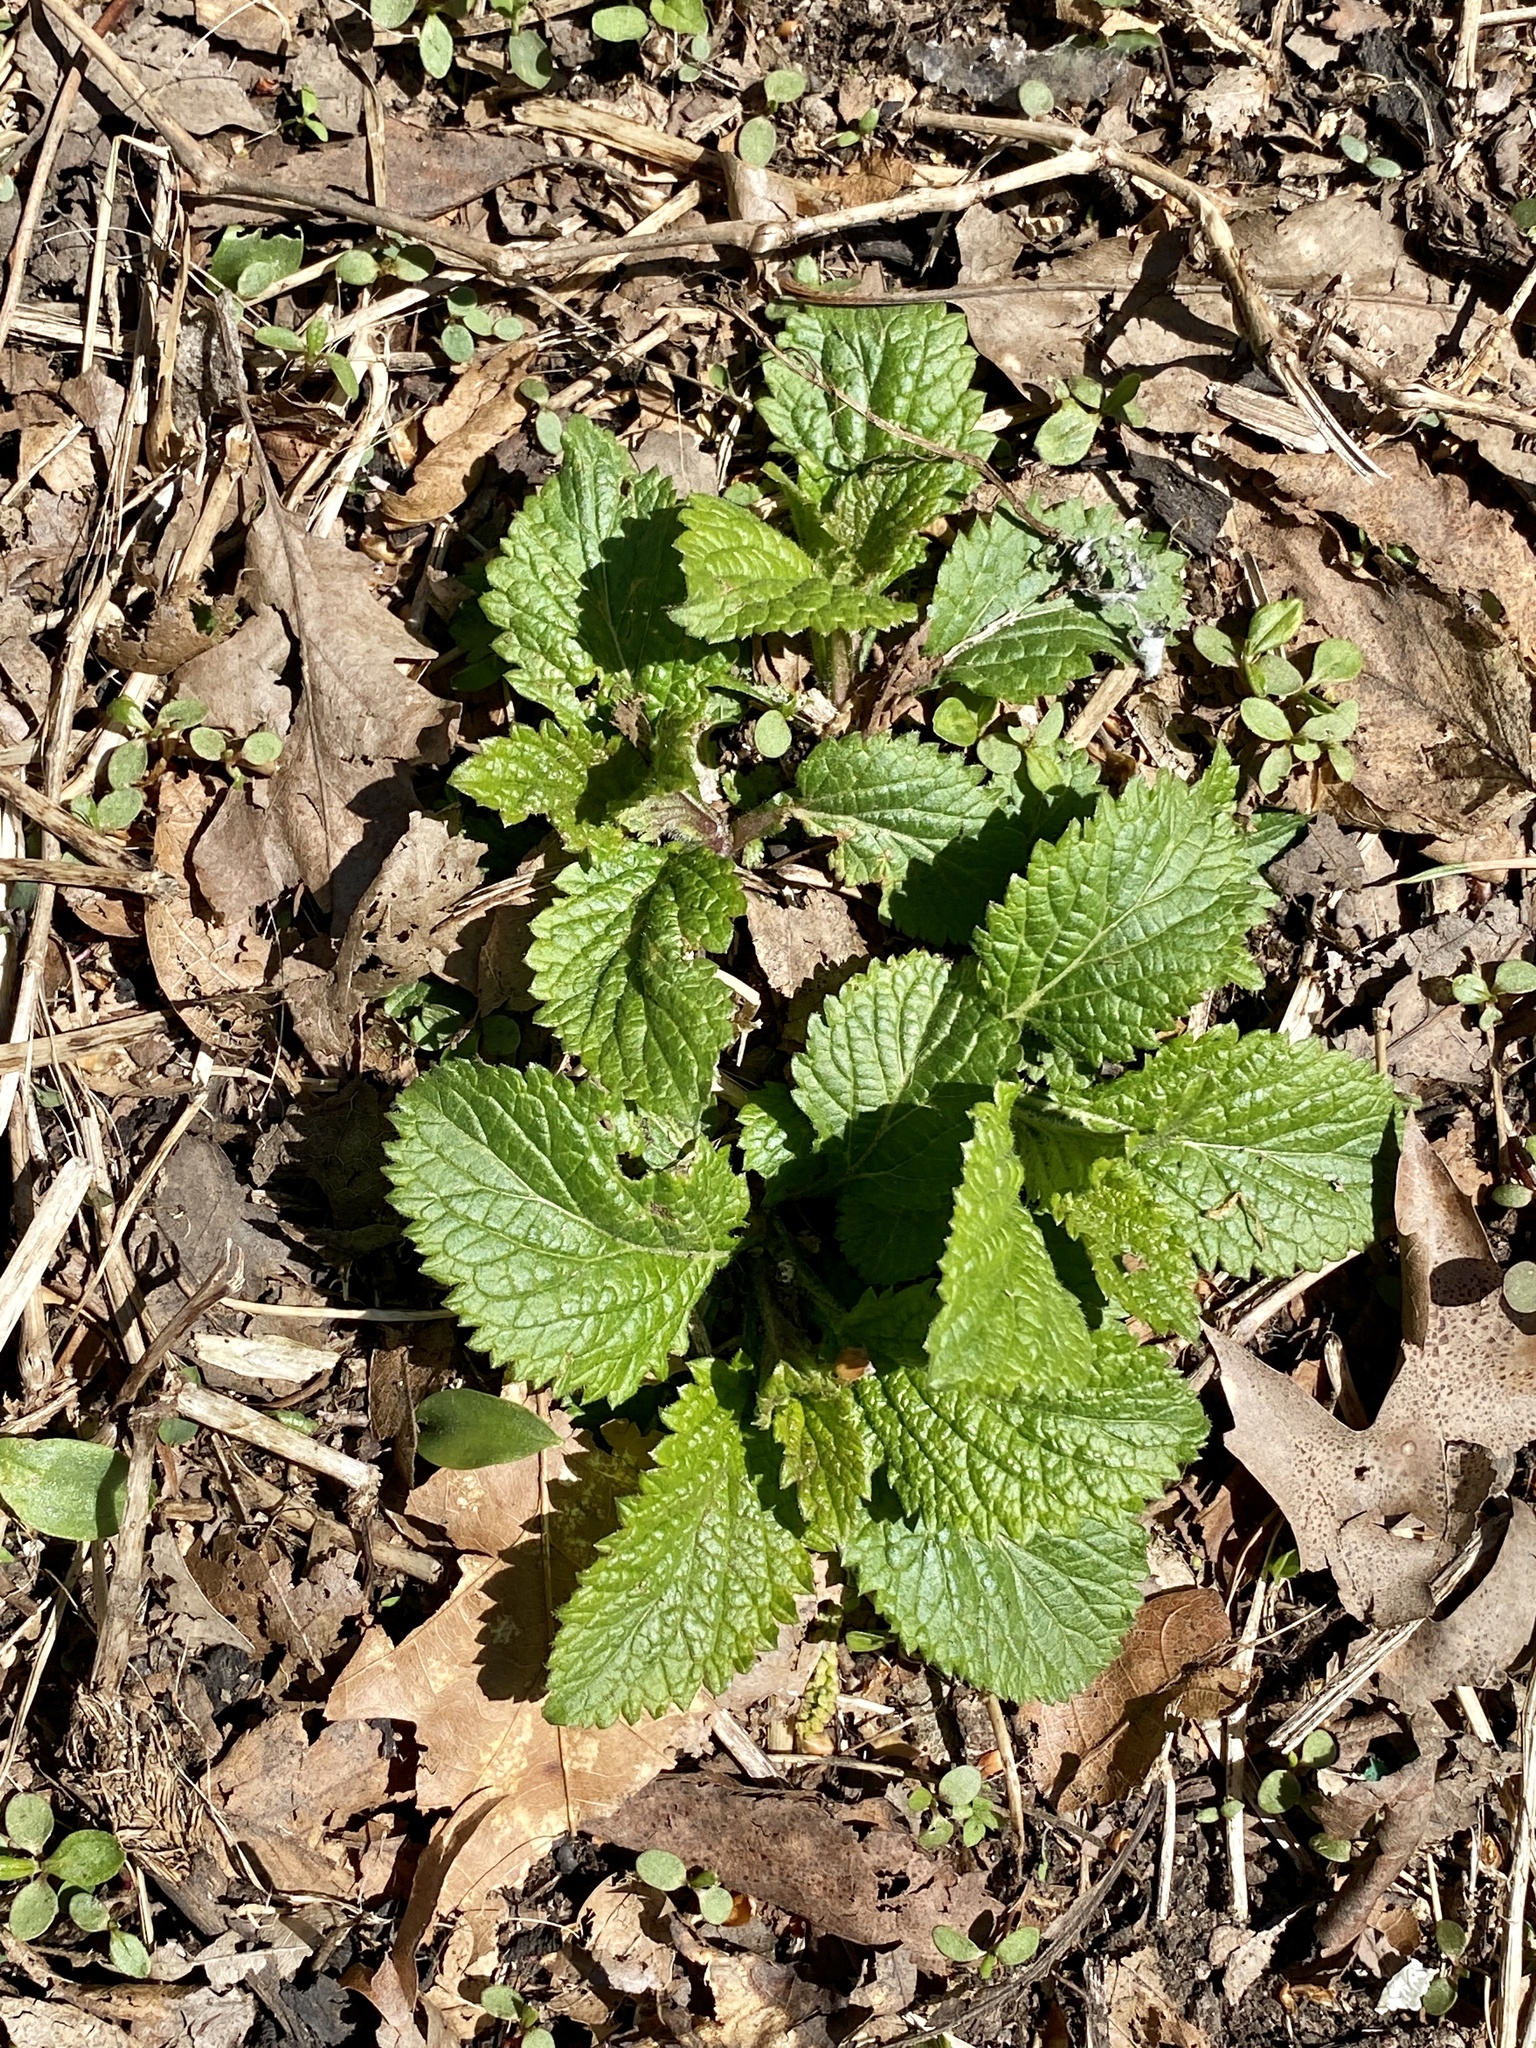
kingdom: Plantae
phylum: Tracheophyta
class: Magnoliopsida
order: Lamiales
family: Verbenaceae
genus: Verbena
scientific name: Verbena urticifolia
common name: Nettle-leaved vervain
